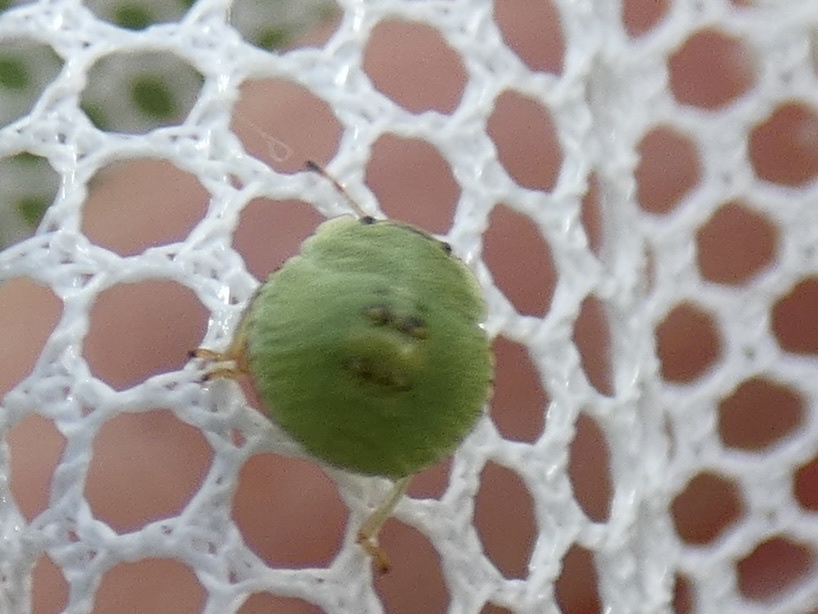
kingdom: Animalia
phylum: Arthropoda
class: Insecta
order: Hemiptera
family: Pentatomidae
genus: Palomena
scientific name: Palomena prasina
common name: Green shieldbug
